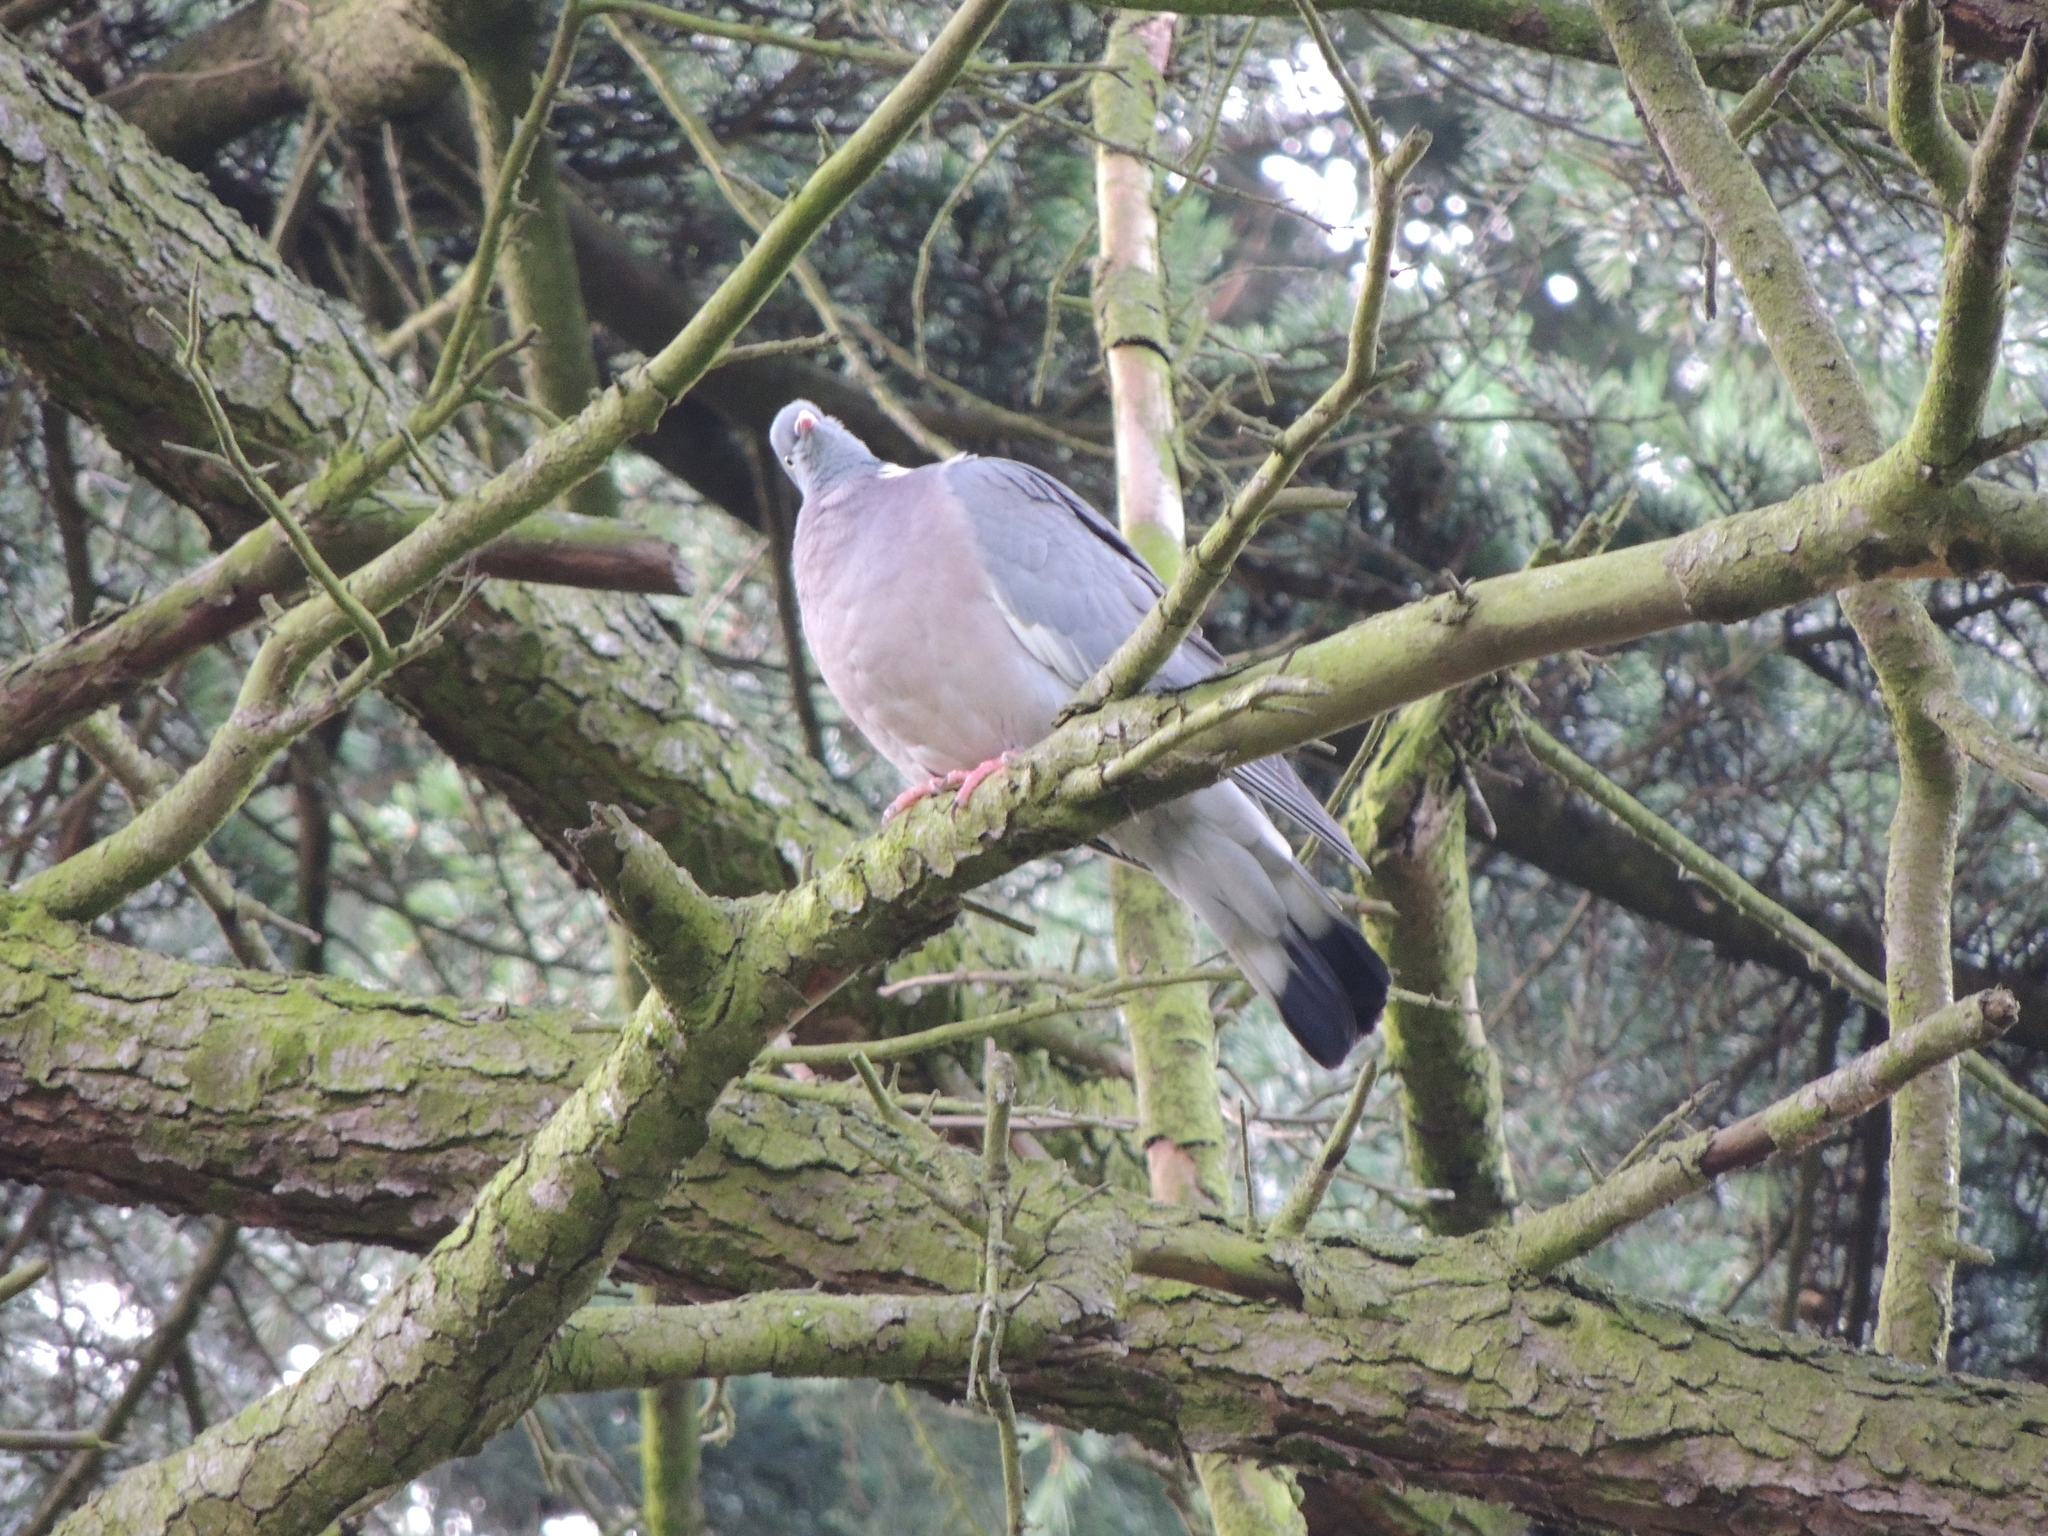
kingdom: Animalia
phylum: Chordata
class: Aves
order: Columbiformes
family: Columbidae
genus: Columba
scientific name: Columba palumbus
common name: Common wood pigeon
